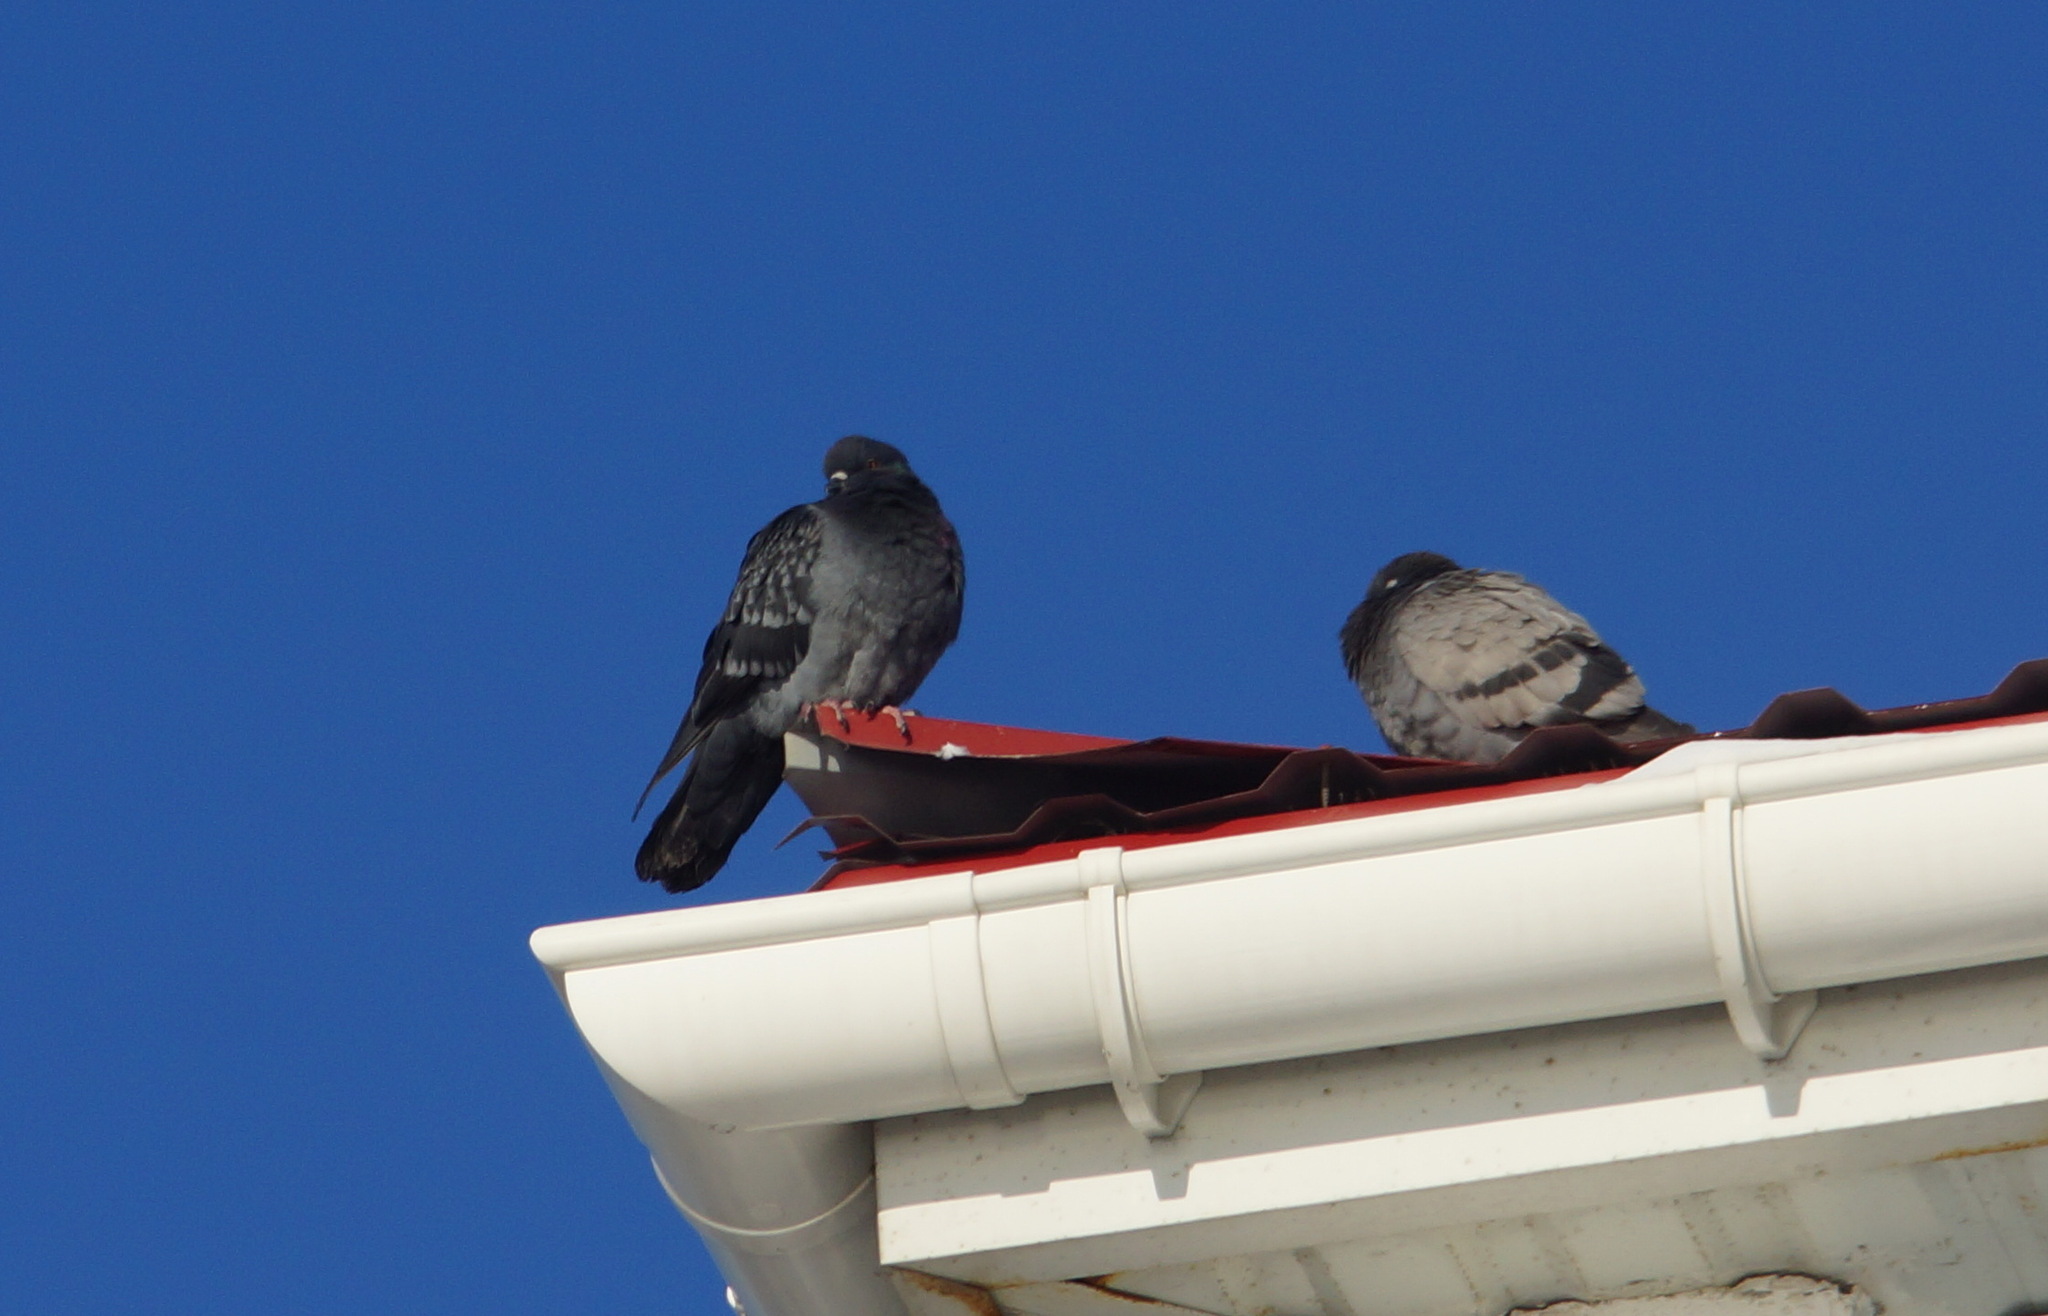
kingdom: Animalia
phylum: Chordata
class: Aves
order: Columbiformes
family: Columbidae
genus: Columba
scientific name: Columba livia
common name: Rock pigeon
